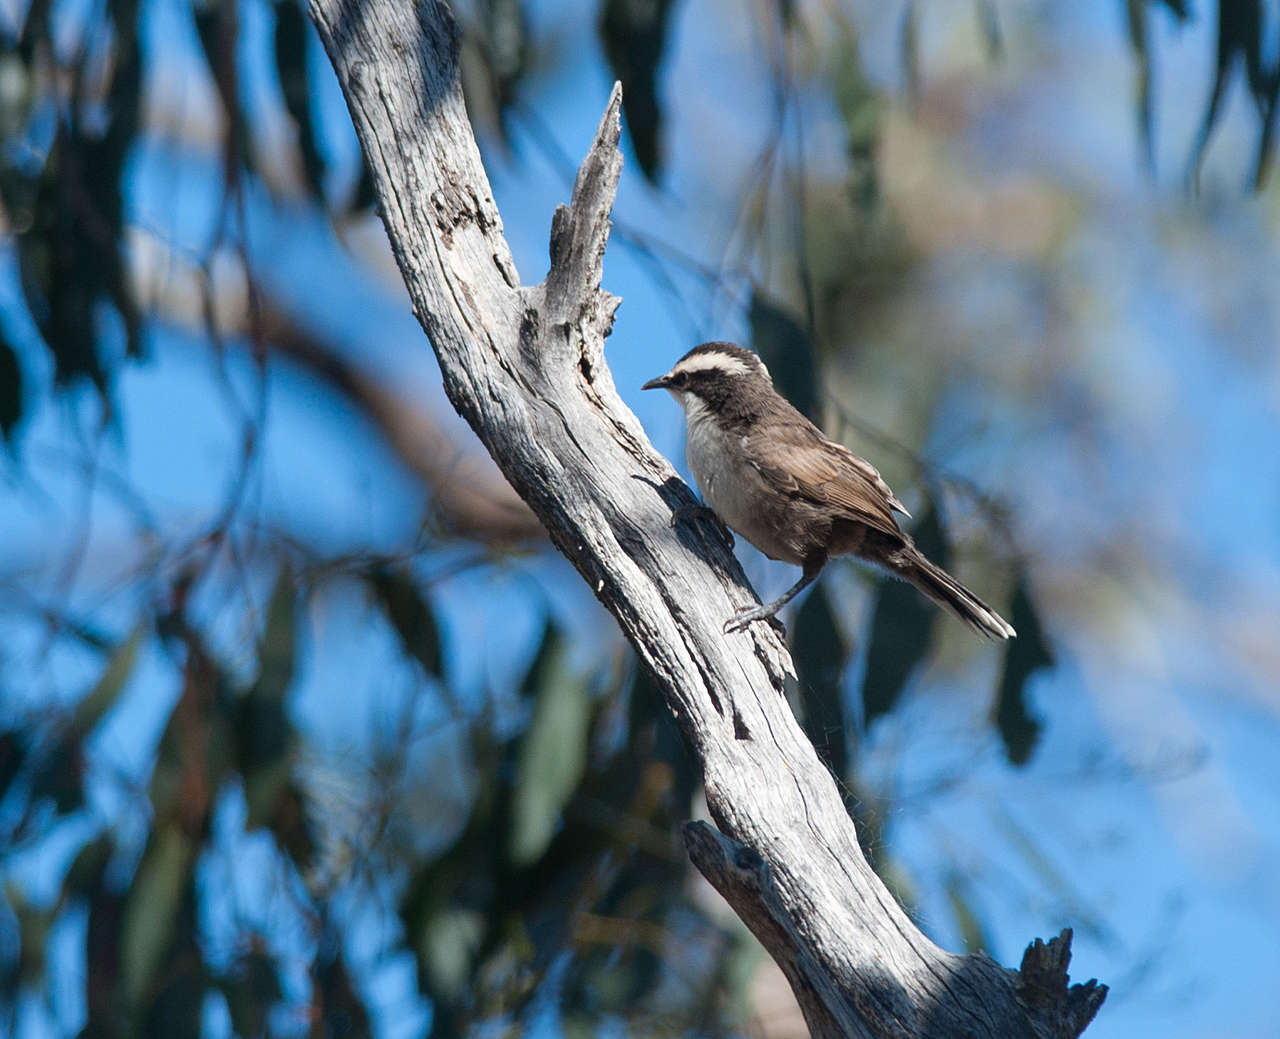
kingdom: Animalia
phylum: Chordata
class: Aves
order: Passeriformes
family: Pomatostomidae
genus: Pomatostomus
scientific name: Pomatostomus superciliosus
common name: White-browed babbler
